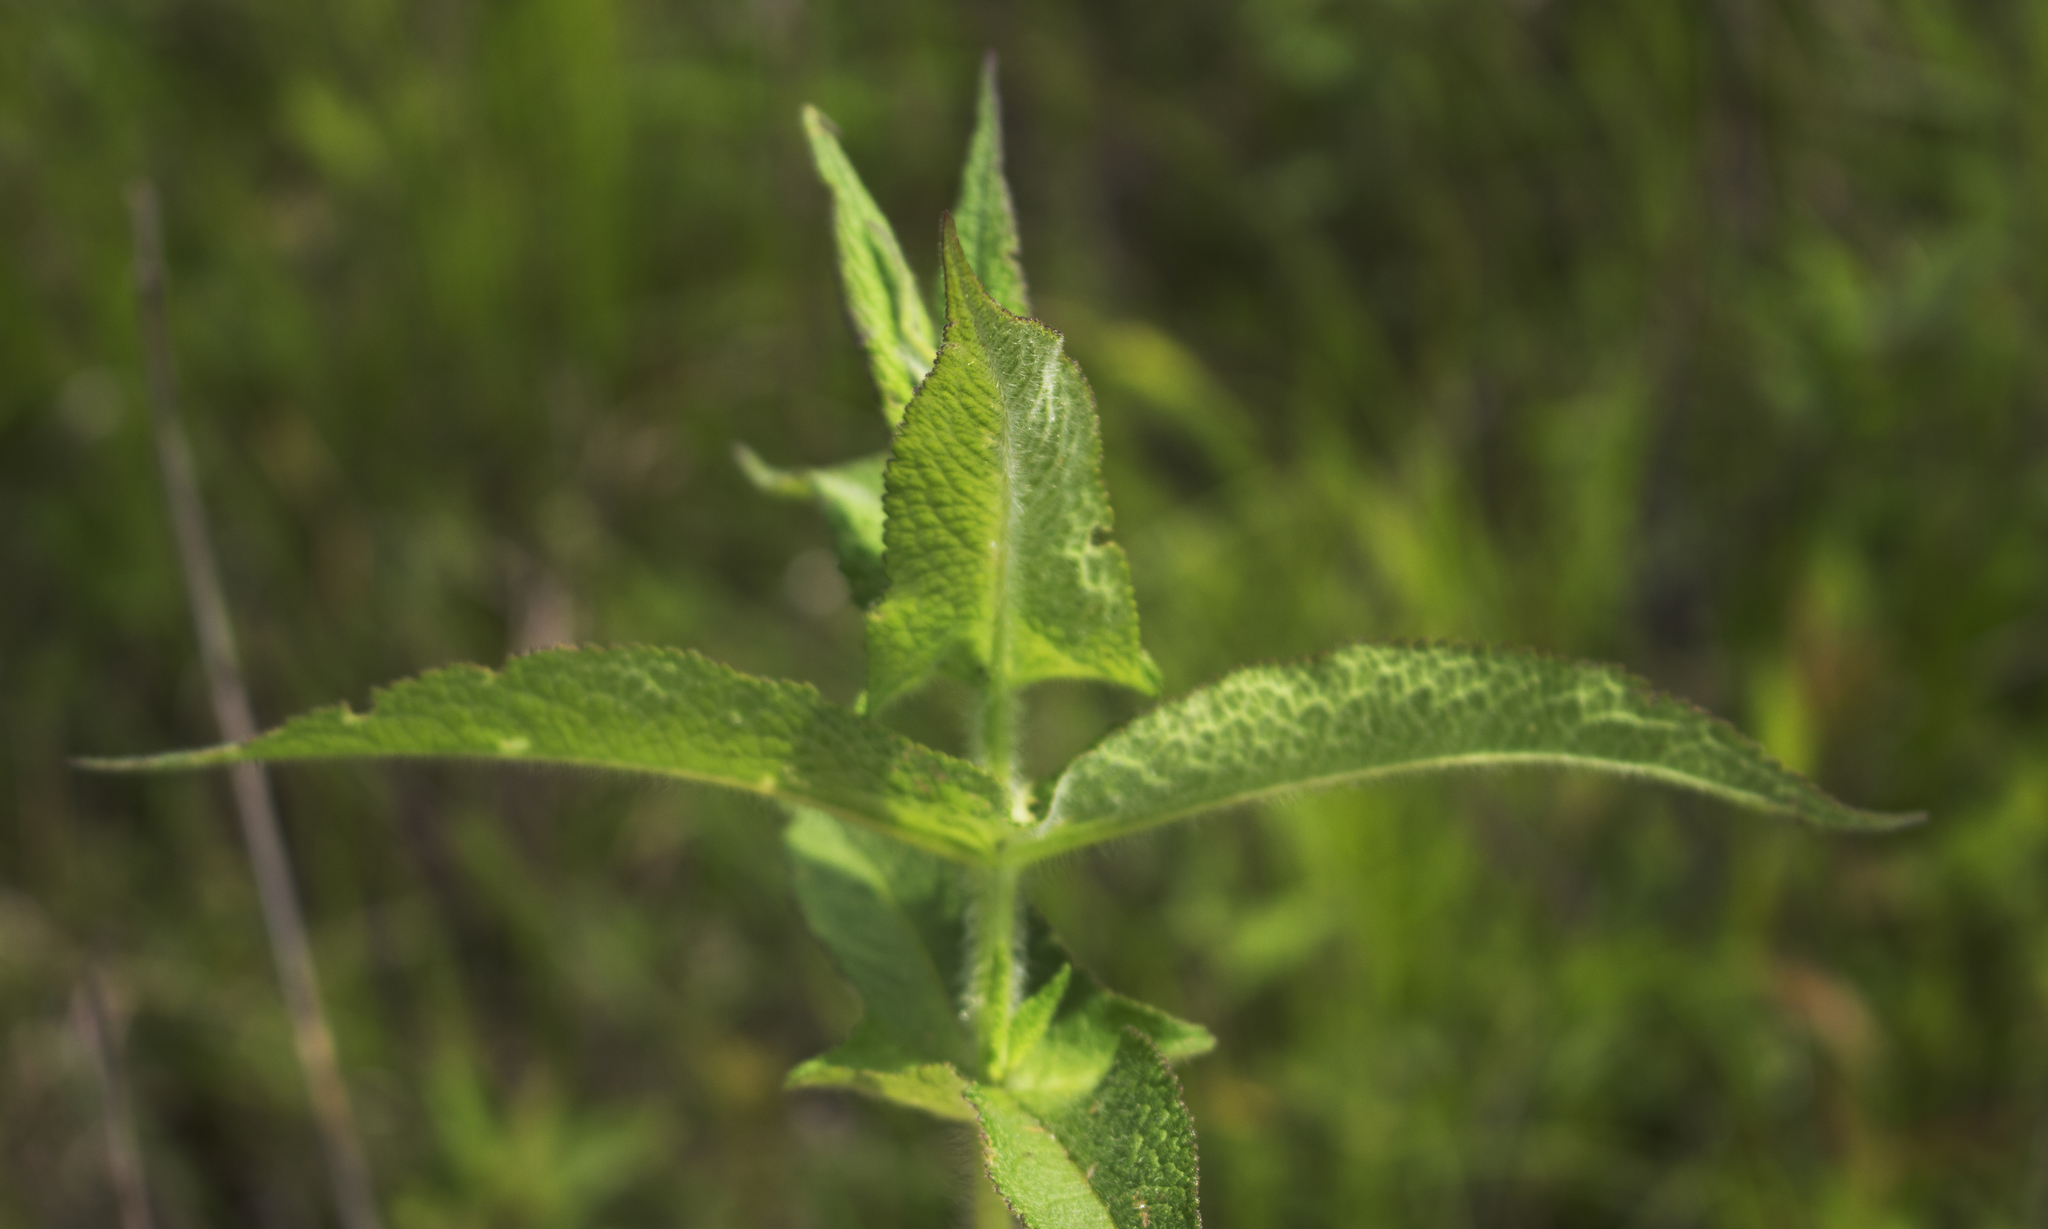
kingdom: Plantae
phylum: Tracheophyta
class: Magnoliopsida
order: Asterales
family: Asteraceae
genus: Eupatorium
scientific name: Eupatorium perfoliatum
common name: Boneset
